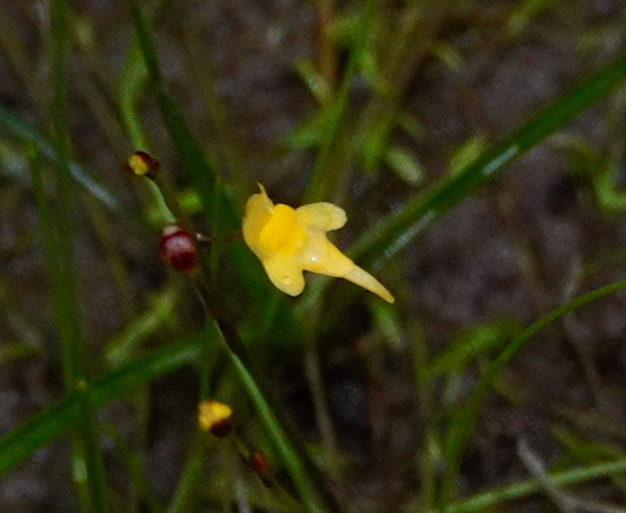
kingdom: Plantae
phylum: Tracheophyta
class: Magnoliopsida
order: Lamiales
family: Lentibulariaceae
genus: Utricularia
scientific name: Utricularia pusilla
